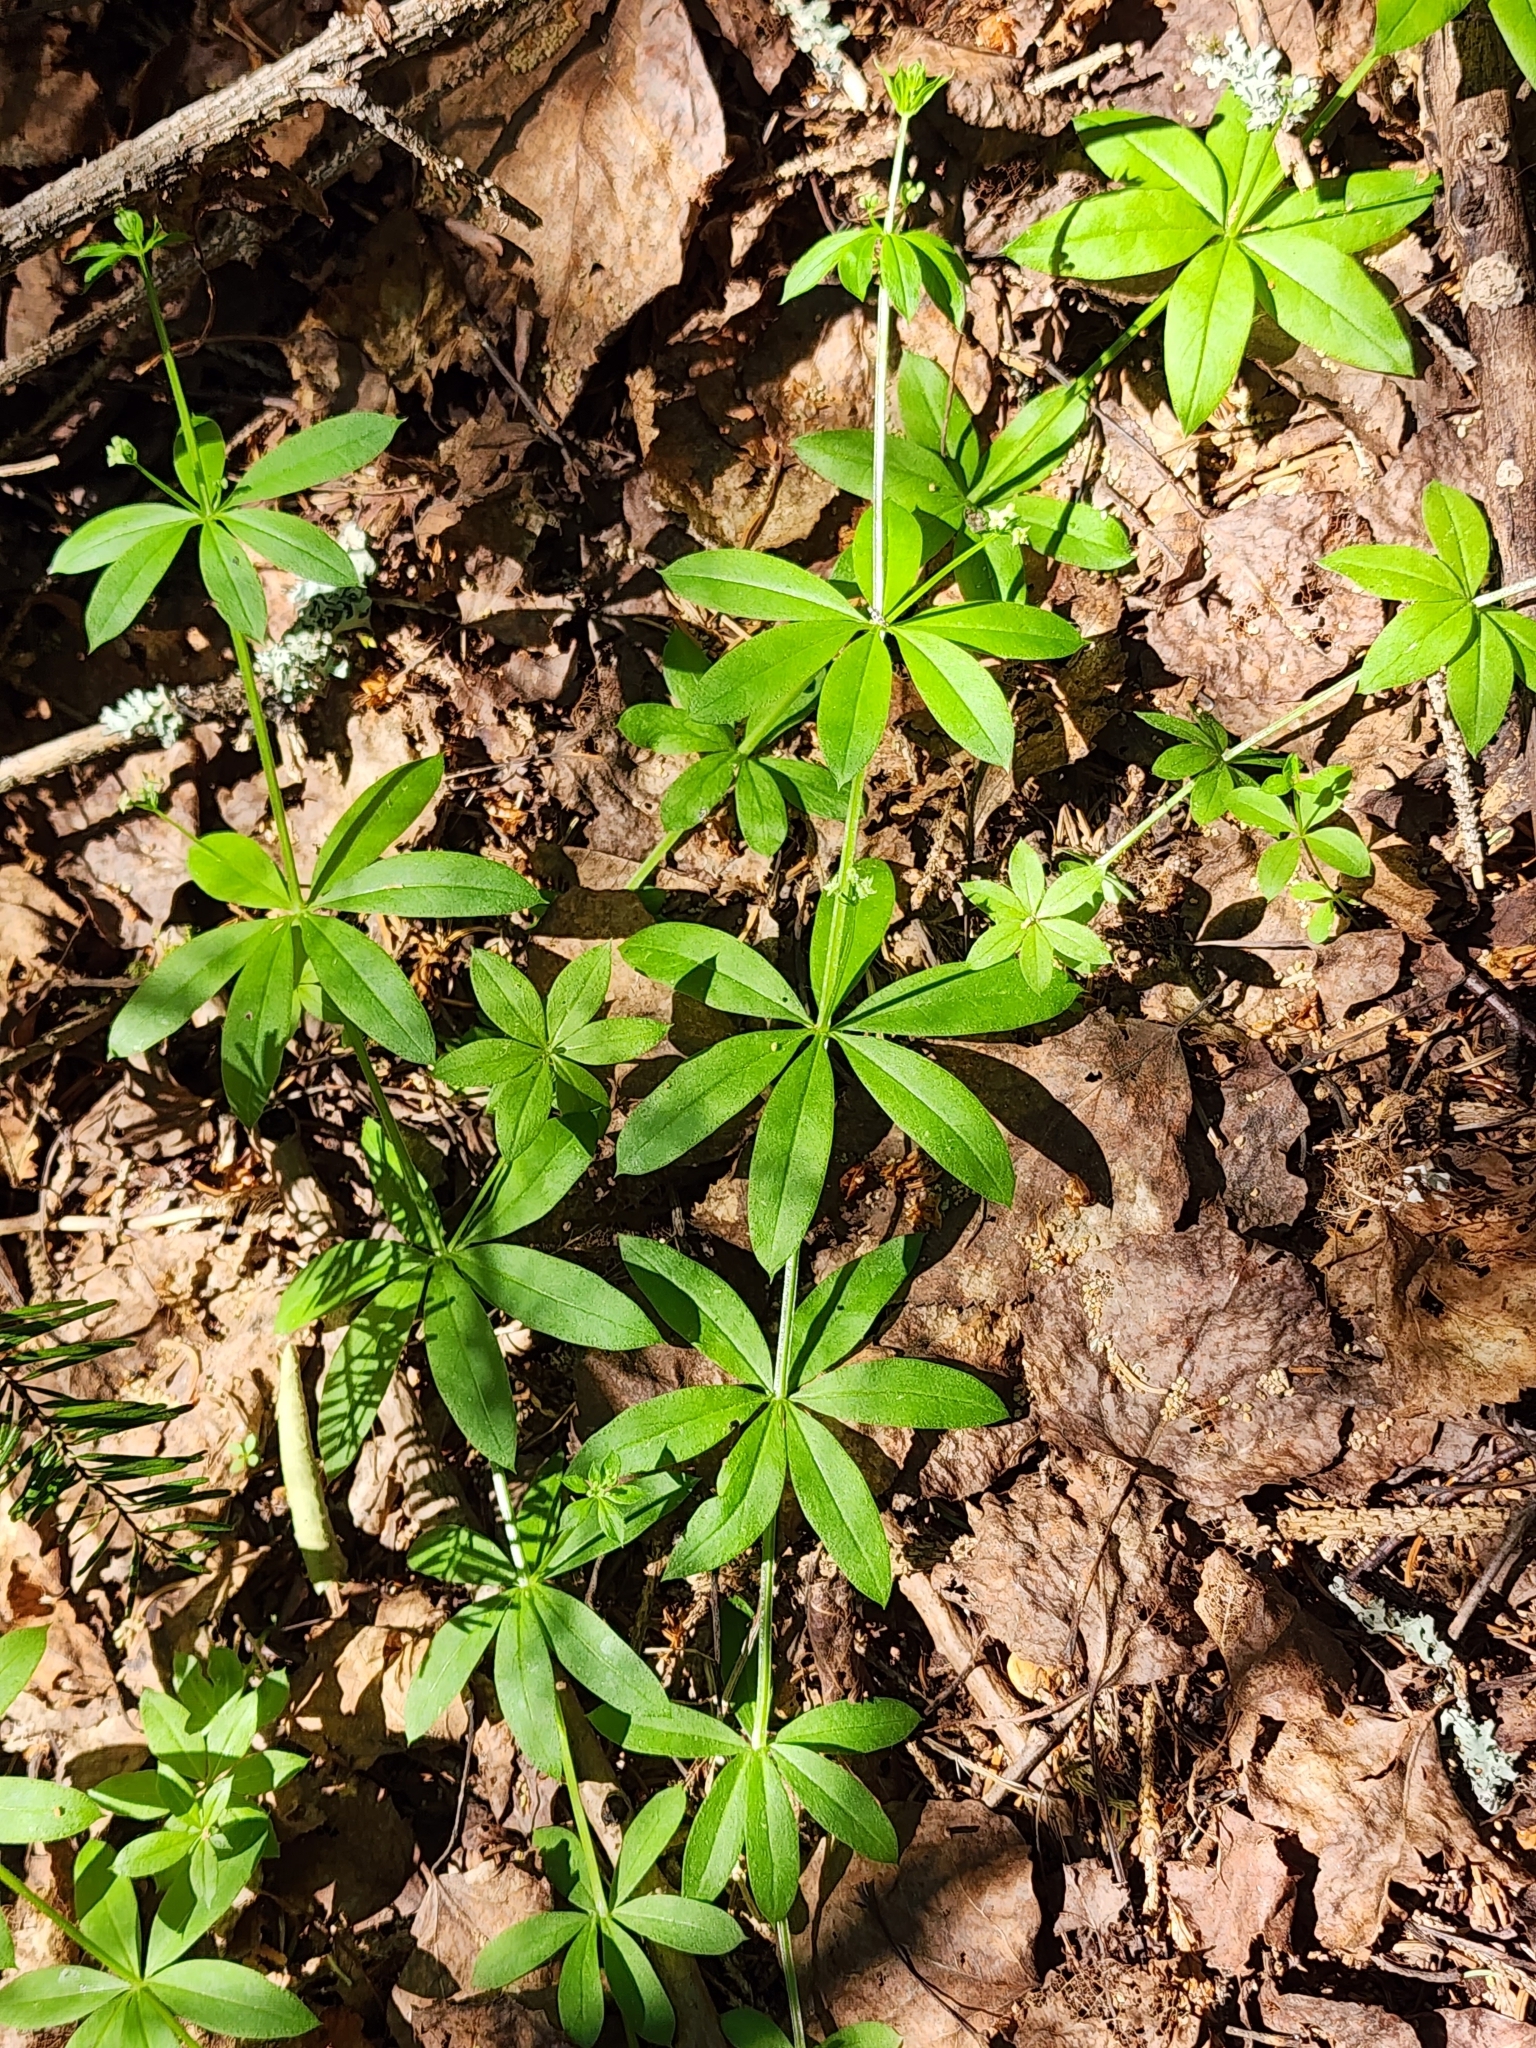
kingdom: Plantae
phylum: Tracheophyta
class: Magnoliopsida
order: Gentianales
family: Rubiaceae
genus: Galium
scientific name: Galium triflorum
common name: Fragrant bedstraw
